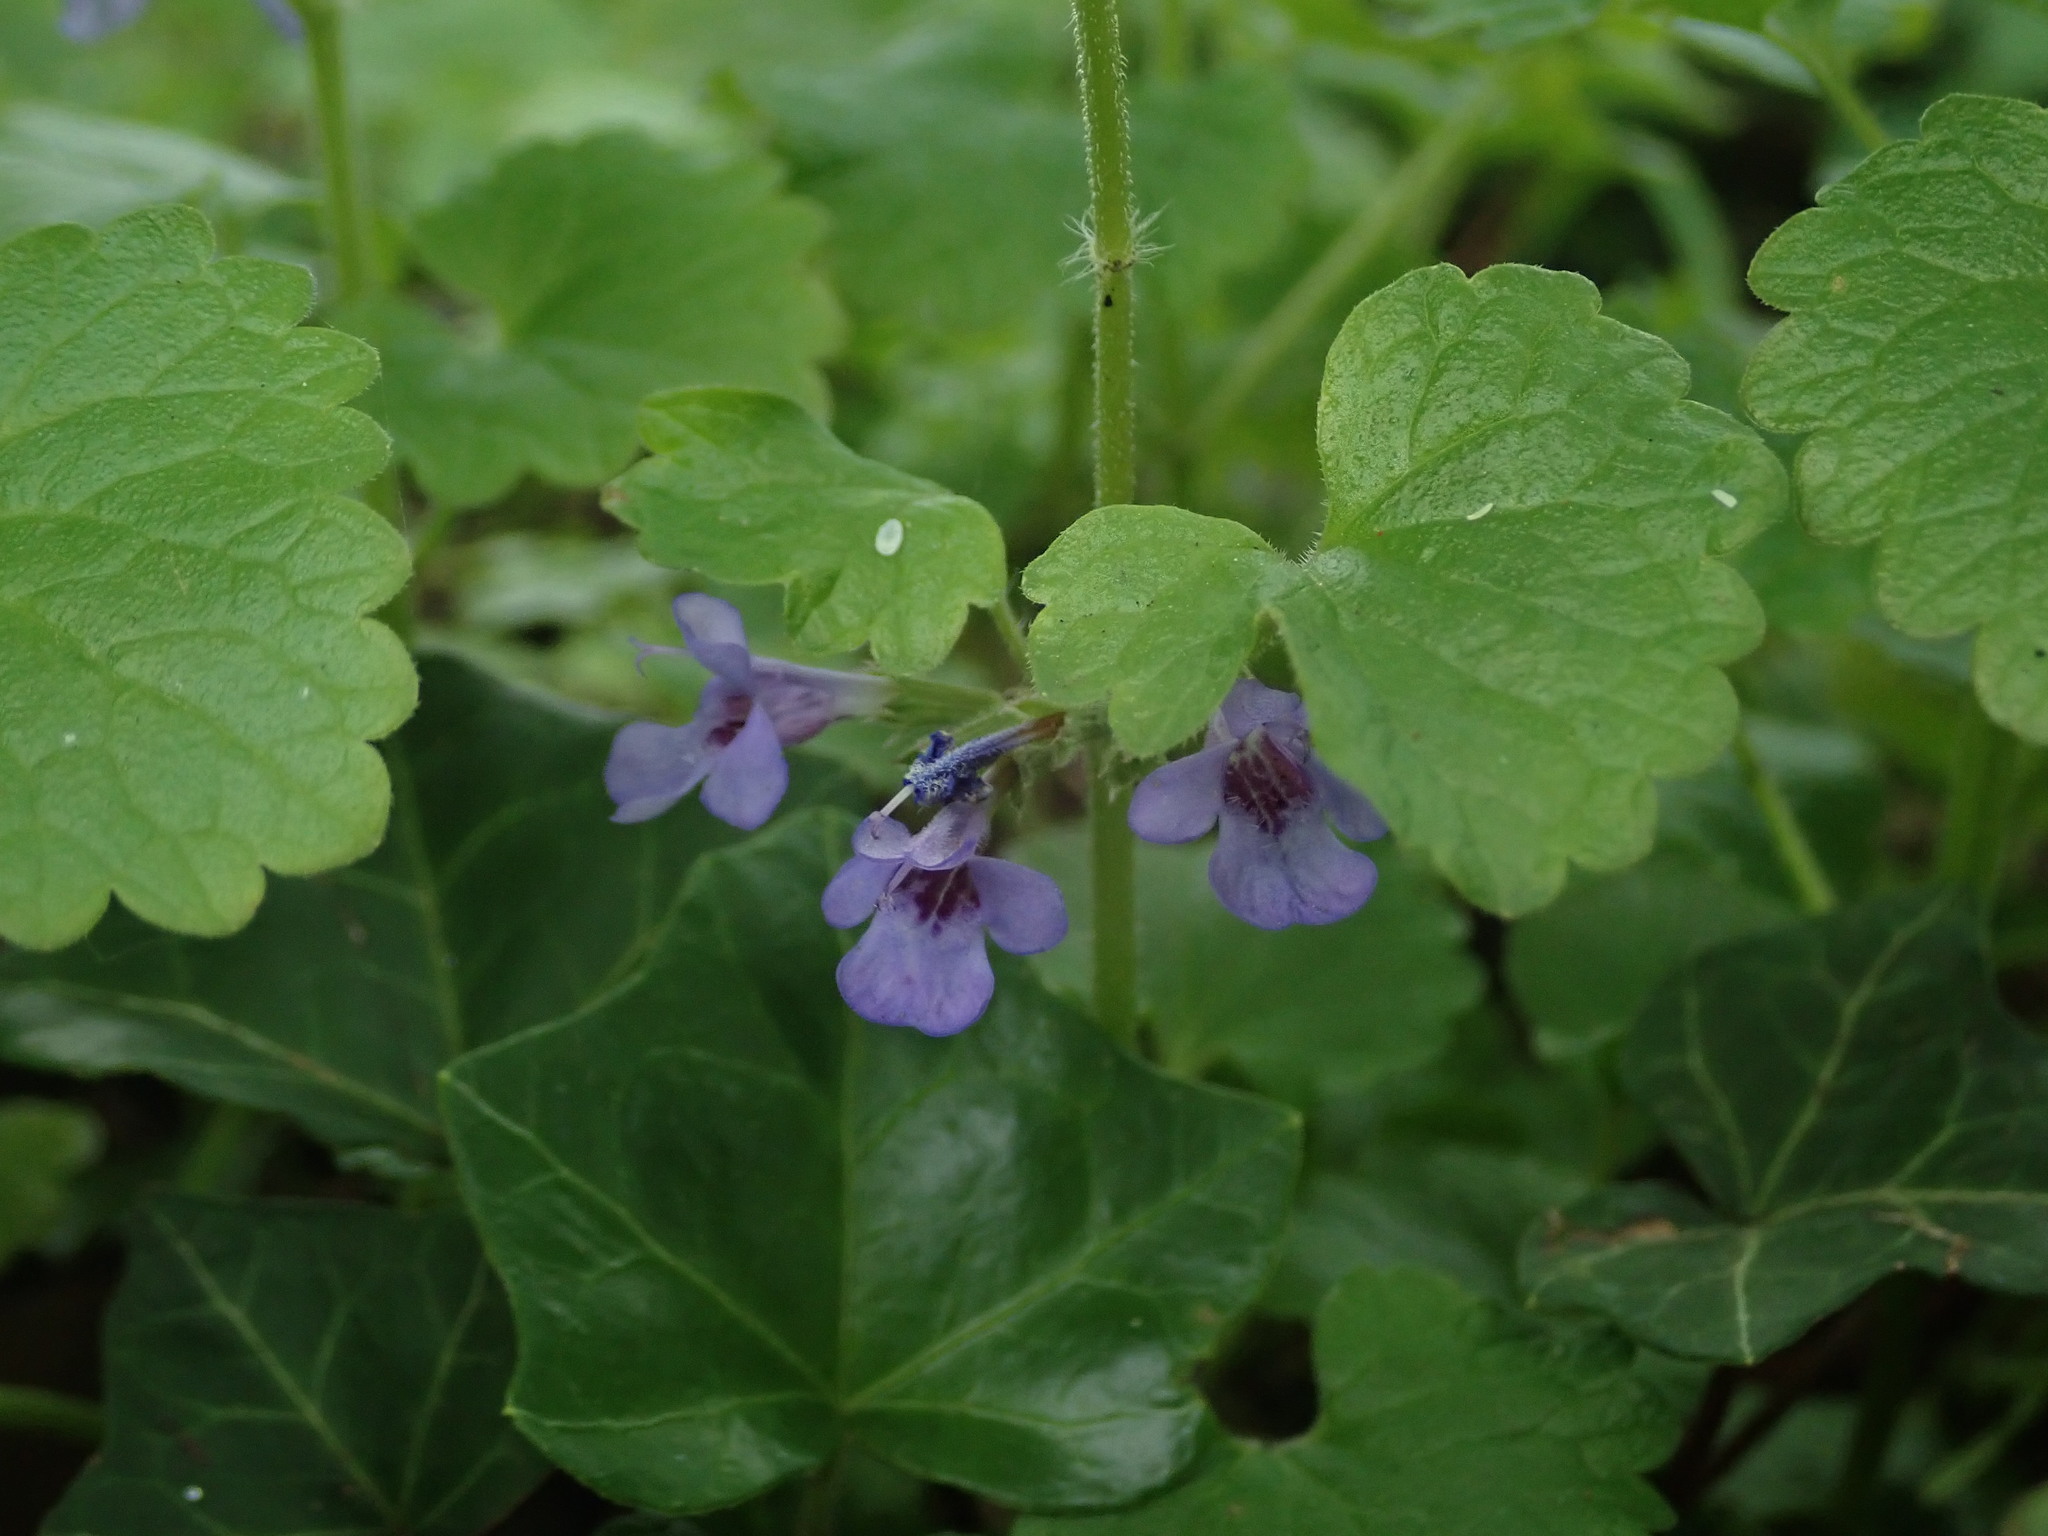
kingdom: Plantae
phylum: Tracheophyta
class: Magnoliopsida
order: Lamiales
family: Lamiaceae
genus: Glechoma
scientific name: Glechoma hederacea
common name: Ground ivy
